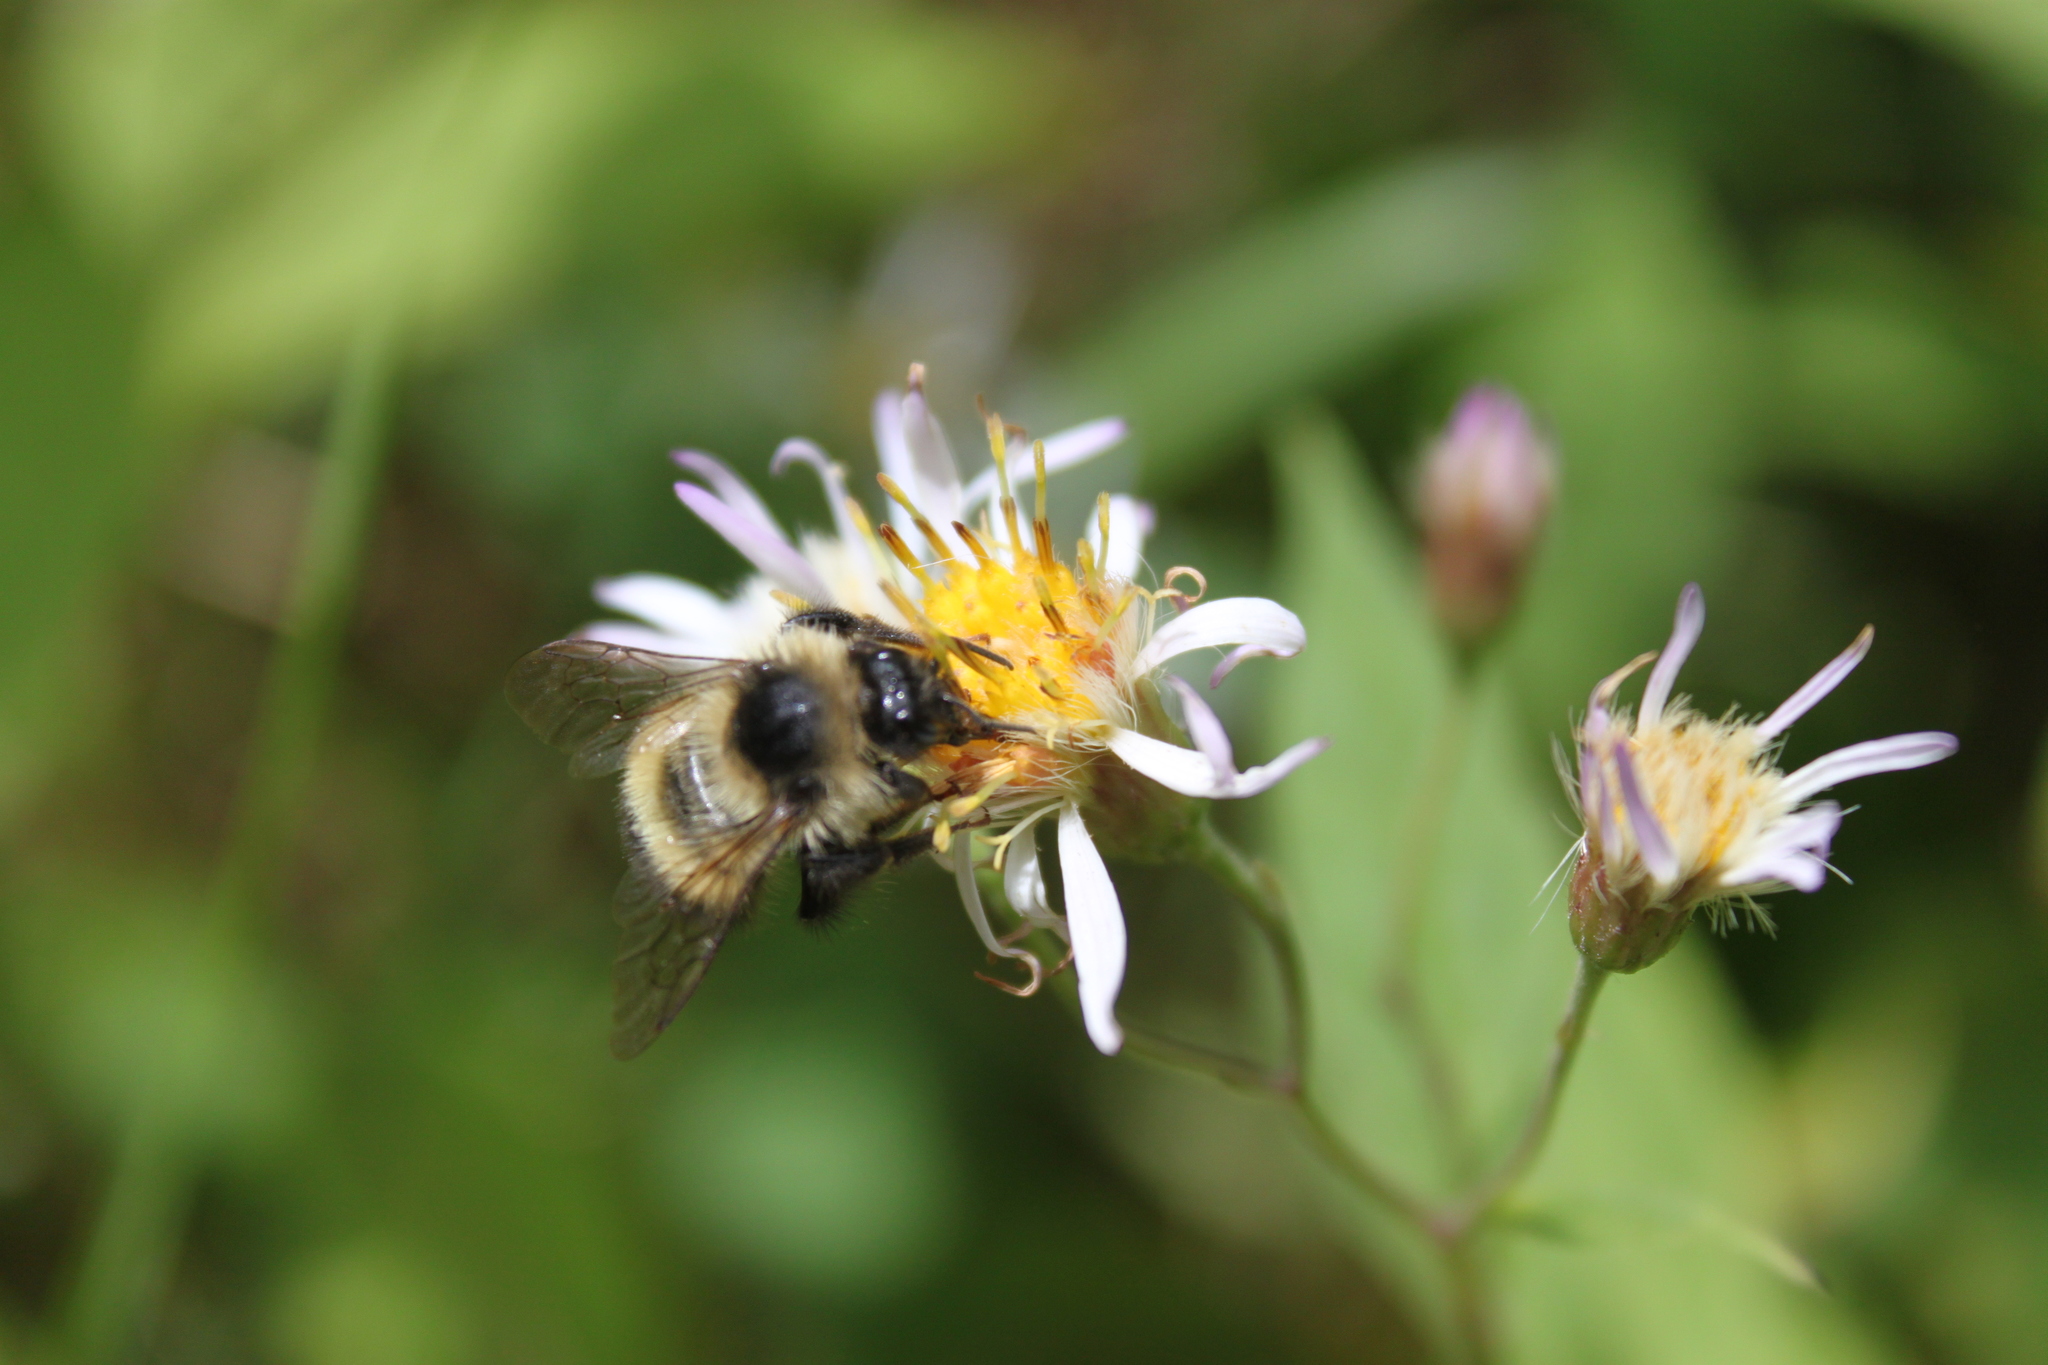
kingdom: Animalia
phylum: Arthropoda
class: Insecta
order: Hymenoptera
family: Apidae
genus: Pyrobombus
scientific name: Pyrobombus
